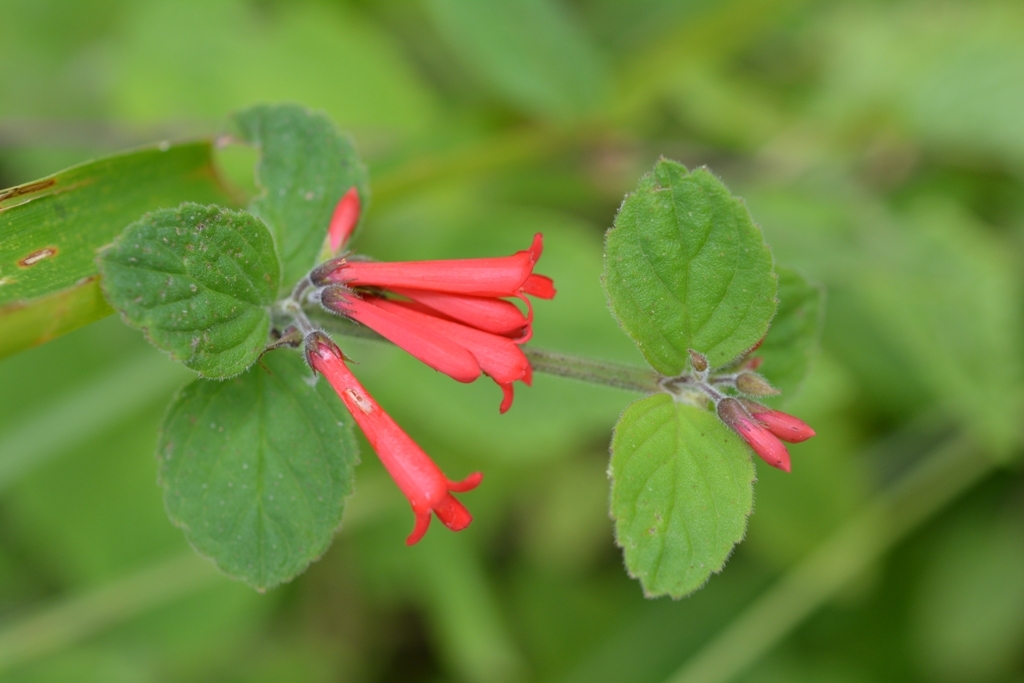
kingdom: Plantae
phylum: Tracheophyta
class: Magnoliopsida
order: Lamiales
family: Plantaginaceae
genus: Russelia
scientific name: Russelia verticillata
